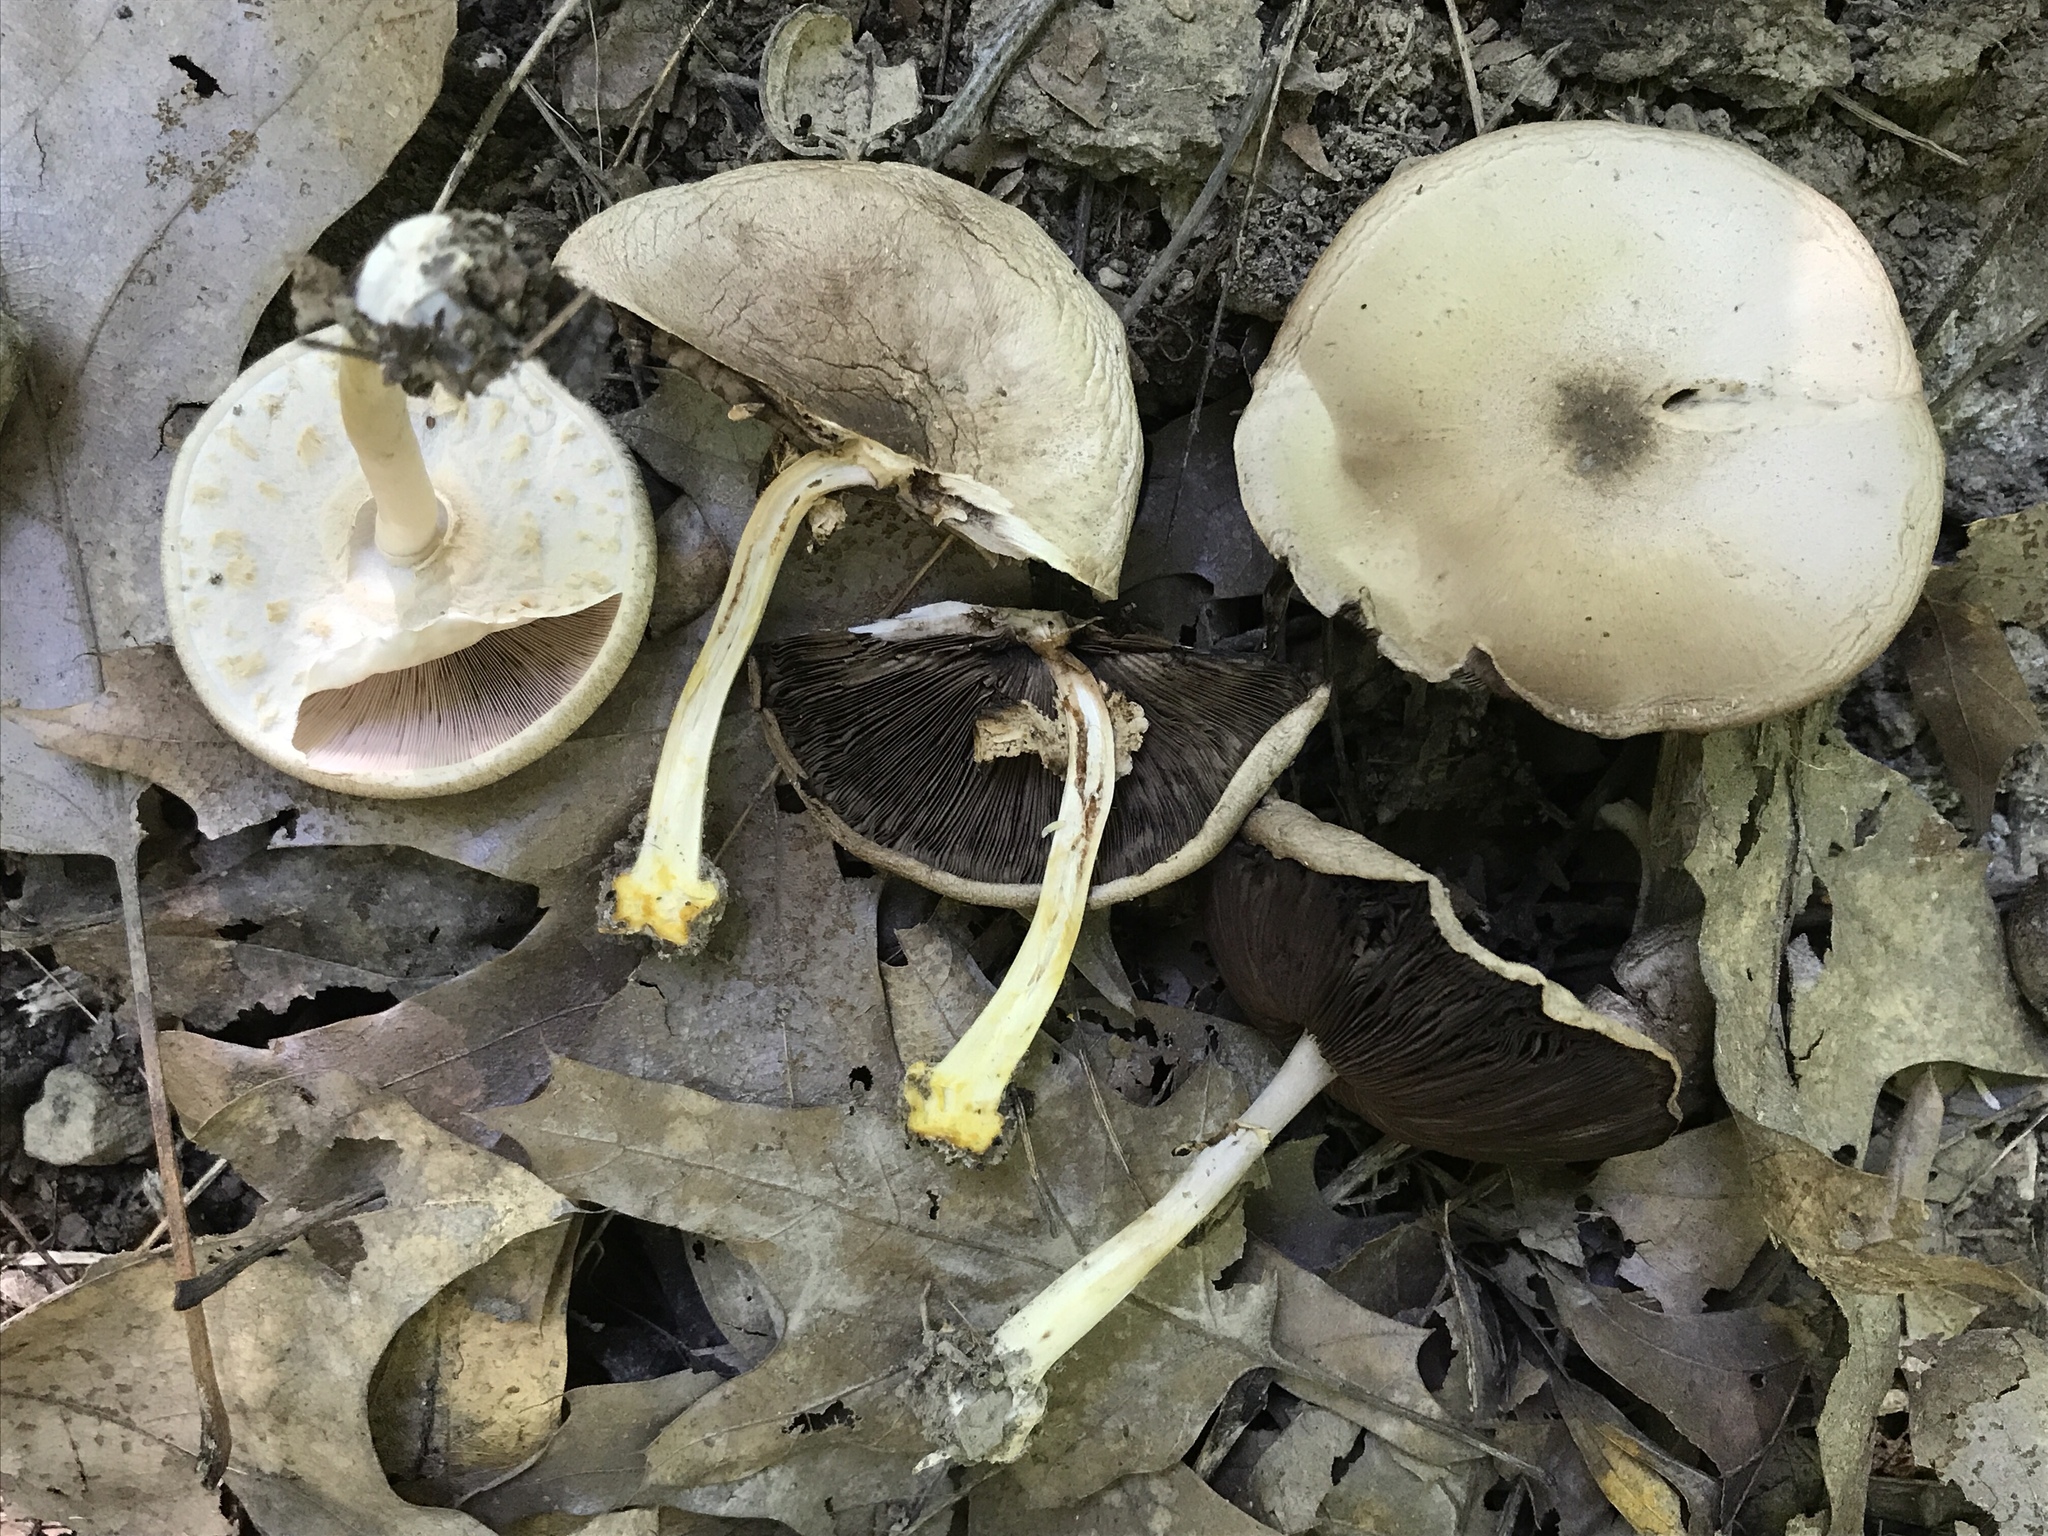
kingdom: Fungi
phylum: Basidiomycota
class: Agaricomycetes
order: Agaricales
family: Agaricaceae
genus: Agaricus
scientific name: Agaricus pocillator
